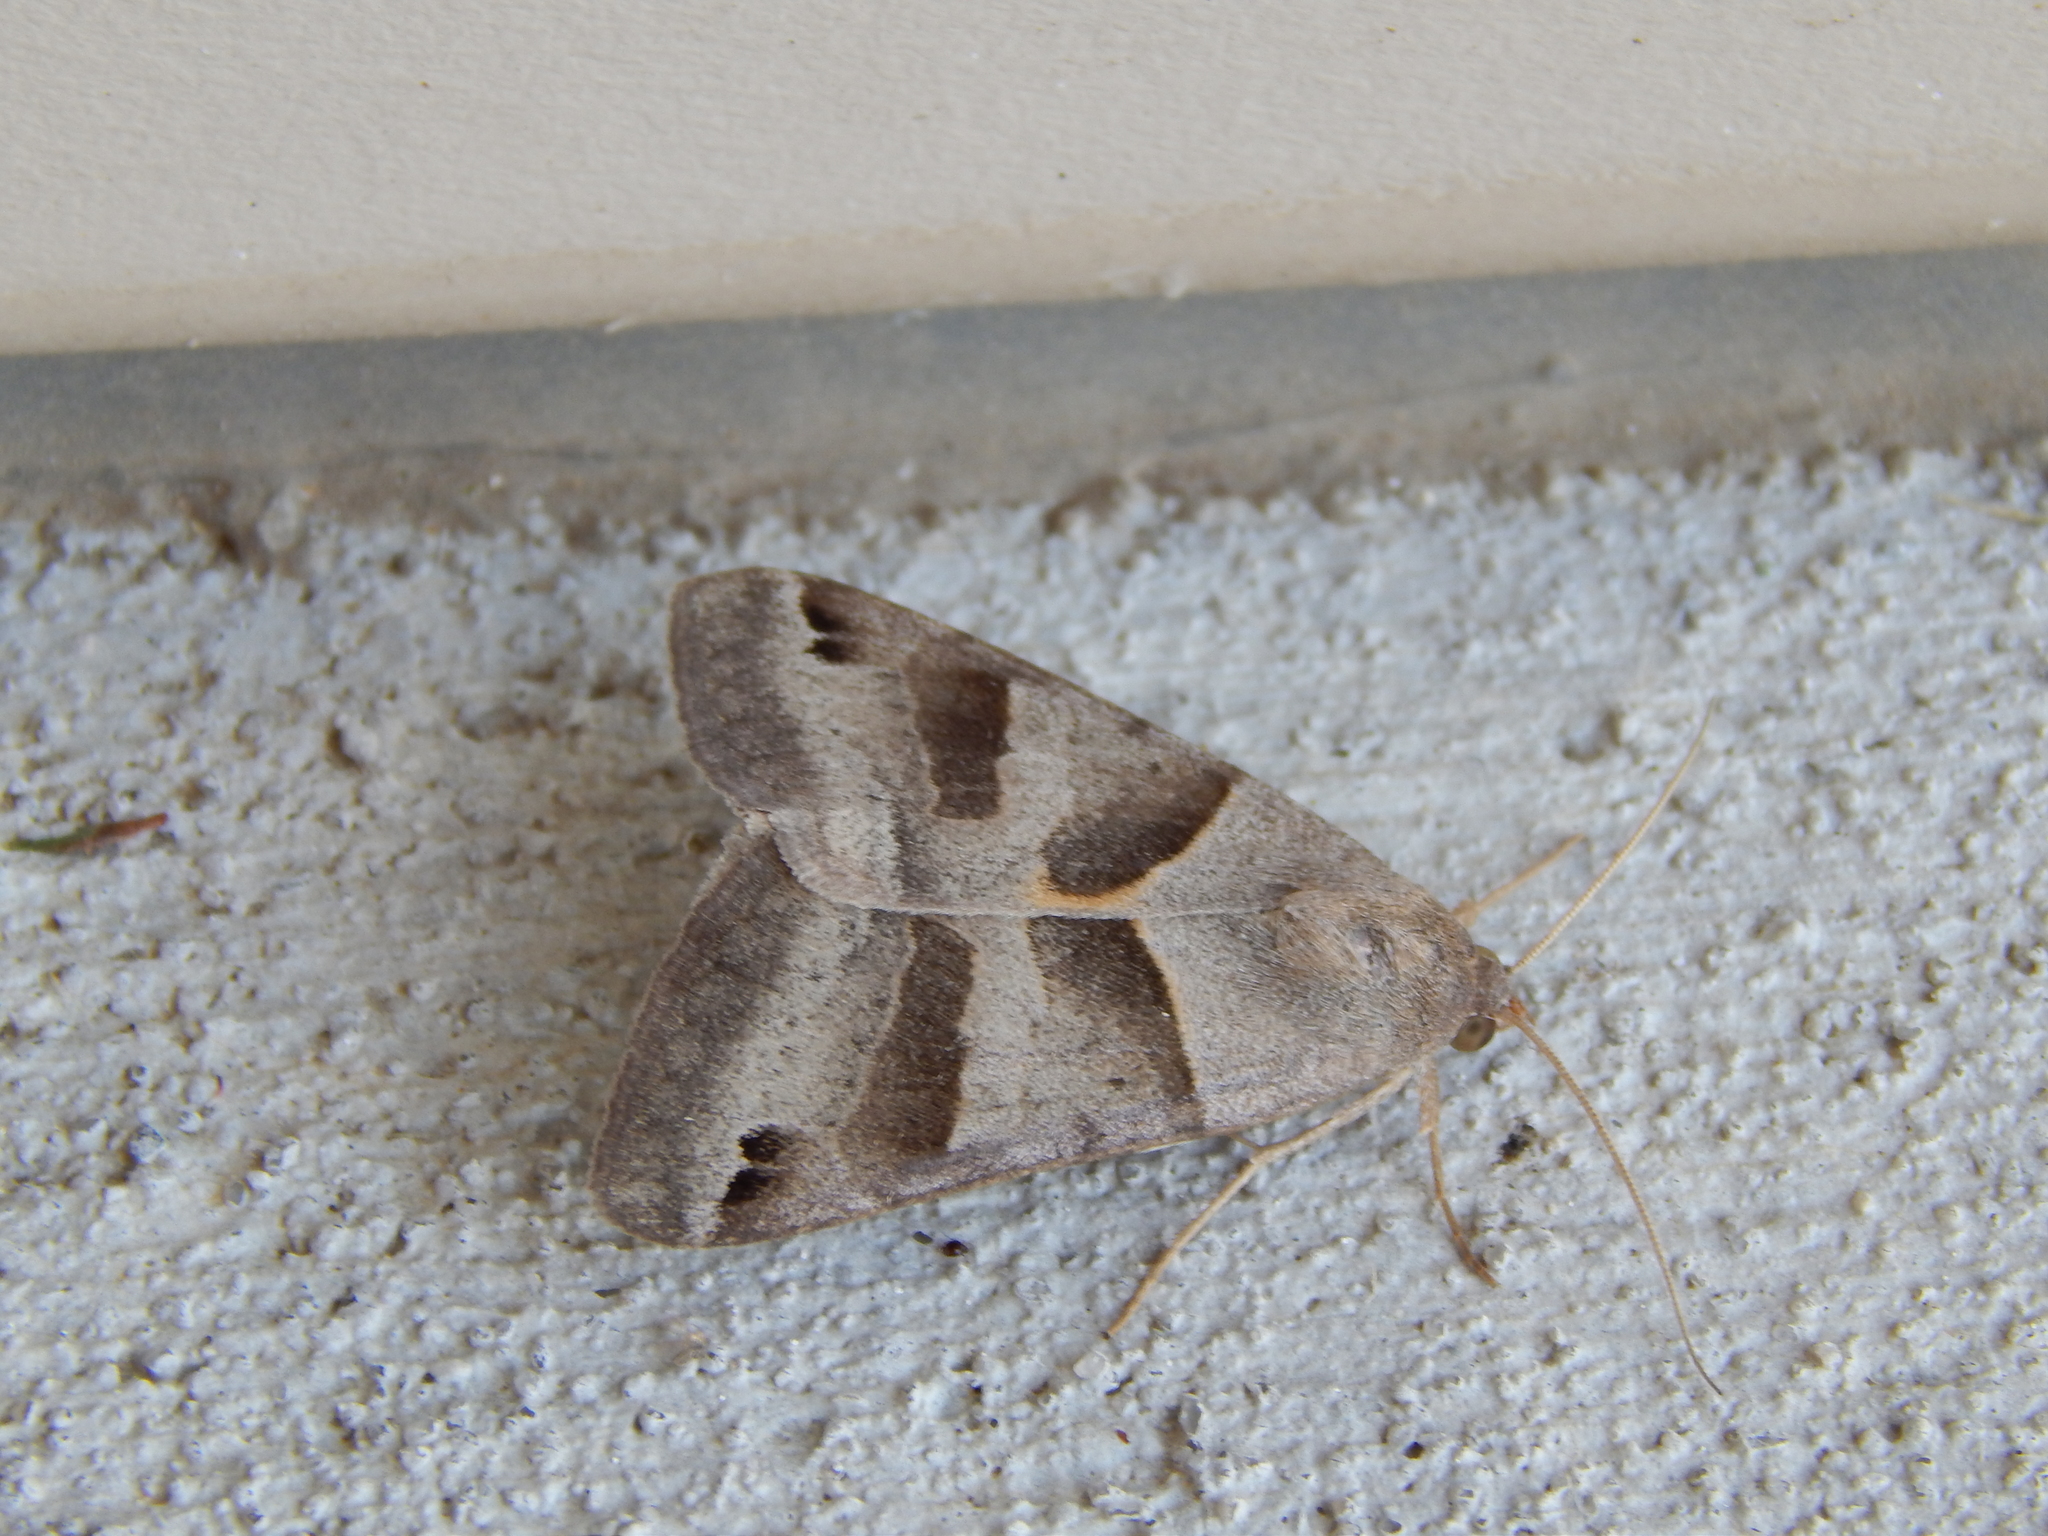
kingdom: Animalia
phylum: Arthropoda
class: Insecta
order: Lepidoptera
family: Erebidae
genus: Caenurgina
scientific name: Caenurgina erechtea
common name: Forage looper moth
